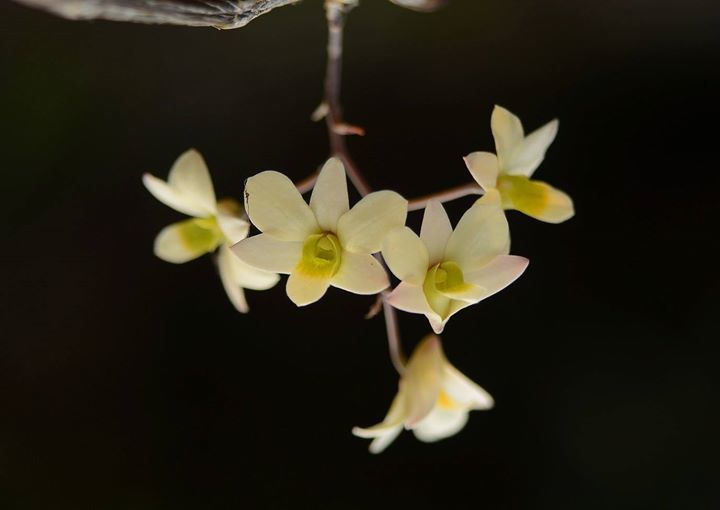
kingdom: Plantae
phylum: Tracheophyta
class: Liliopsida
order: Asparagales
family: Orchidaceae
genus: Dendrobium
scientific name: Dendrobium ovatum
